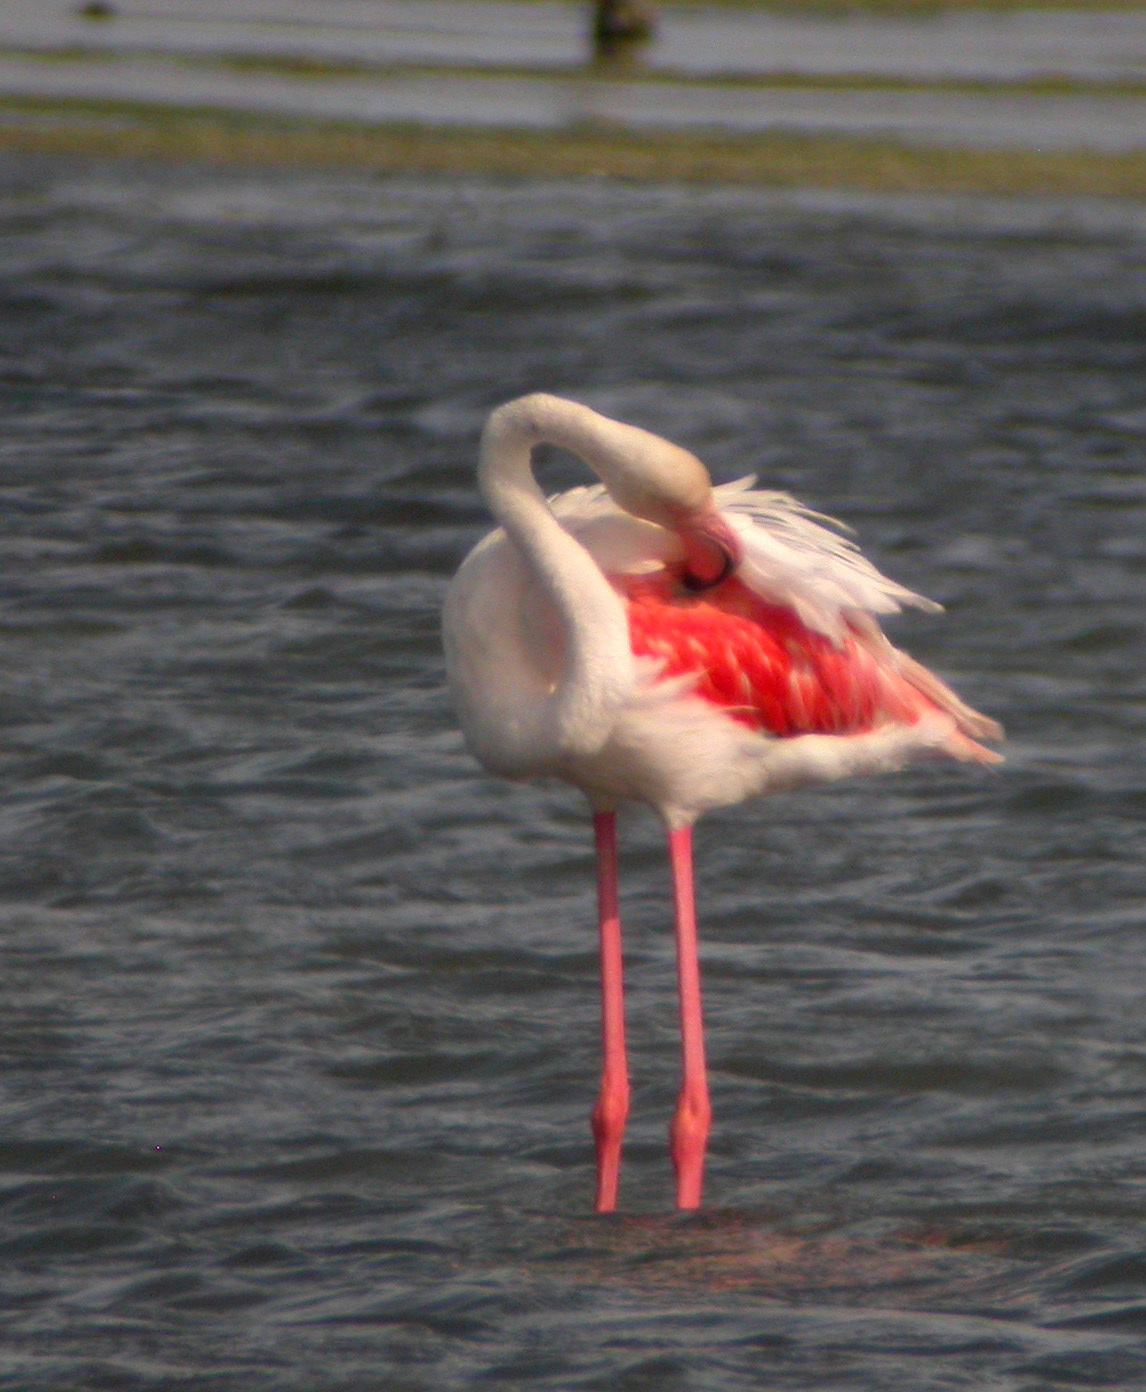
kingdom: Animalia
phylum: Chordata
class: Aves
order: Phoenicopteriformes
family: Phoenicopteridae
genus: Phoenicopterus
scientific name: Phoenicopterus roseus
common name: Greater flamingo
